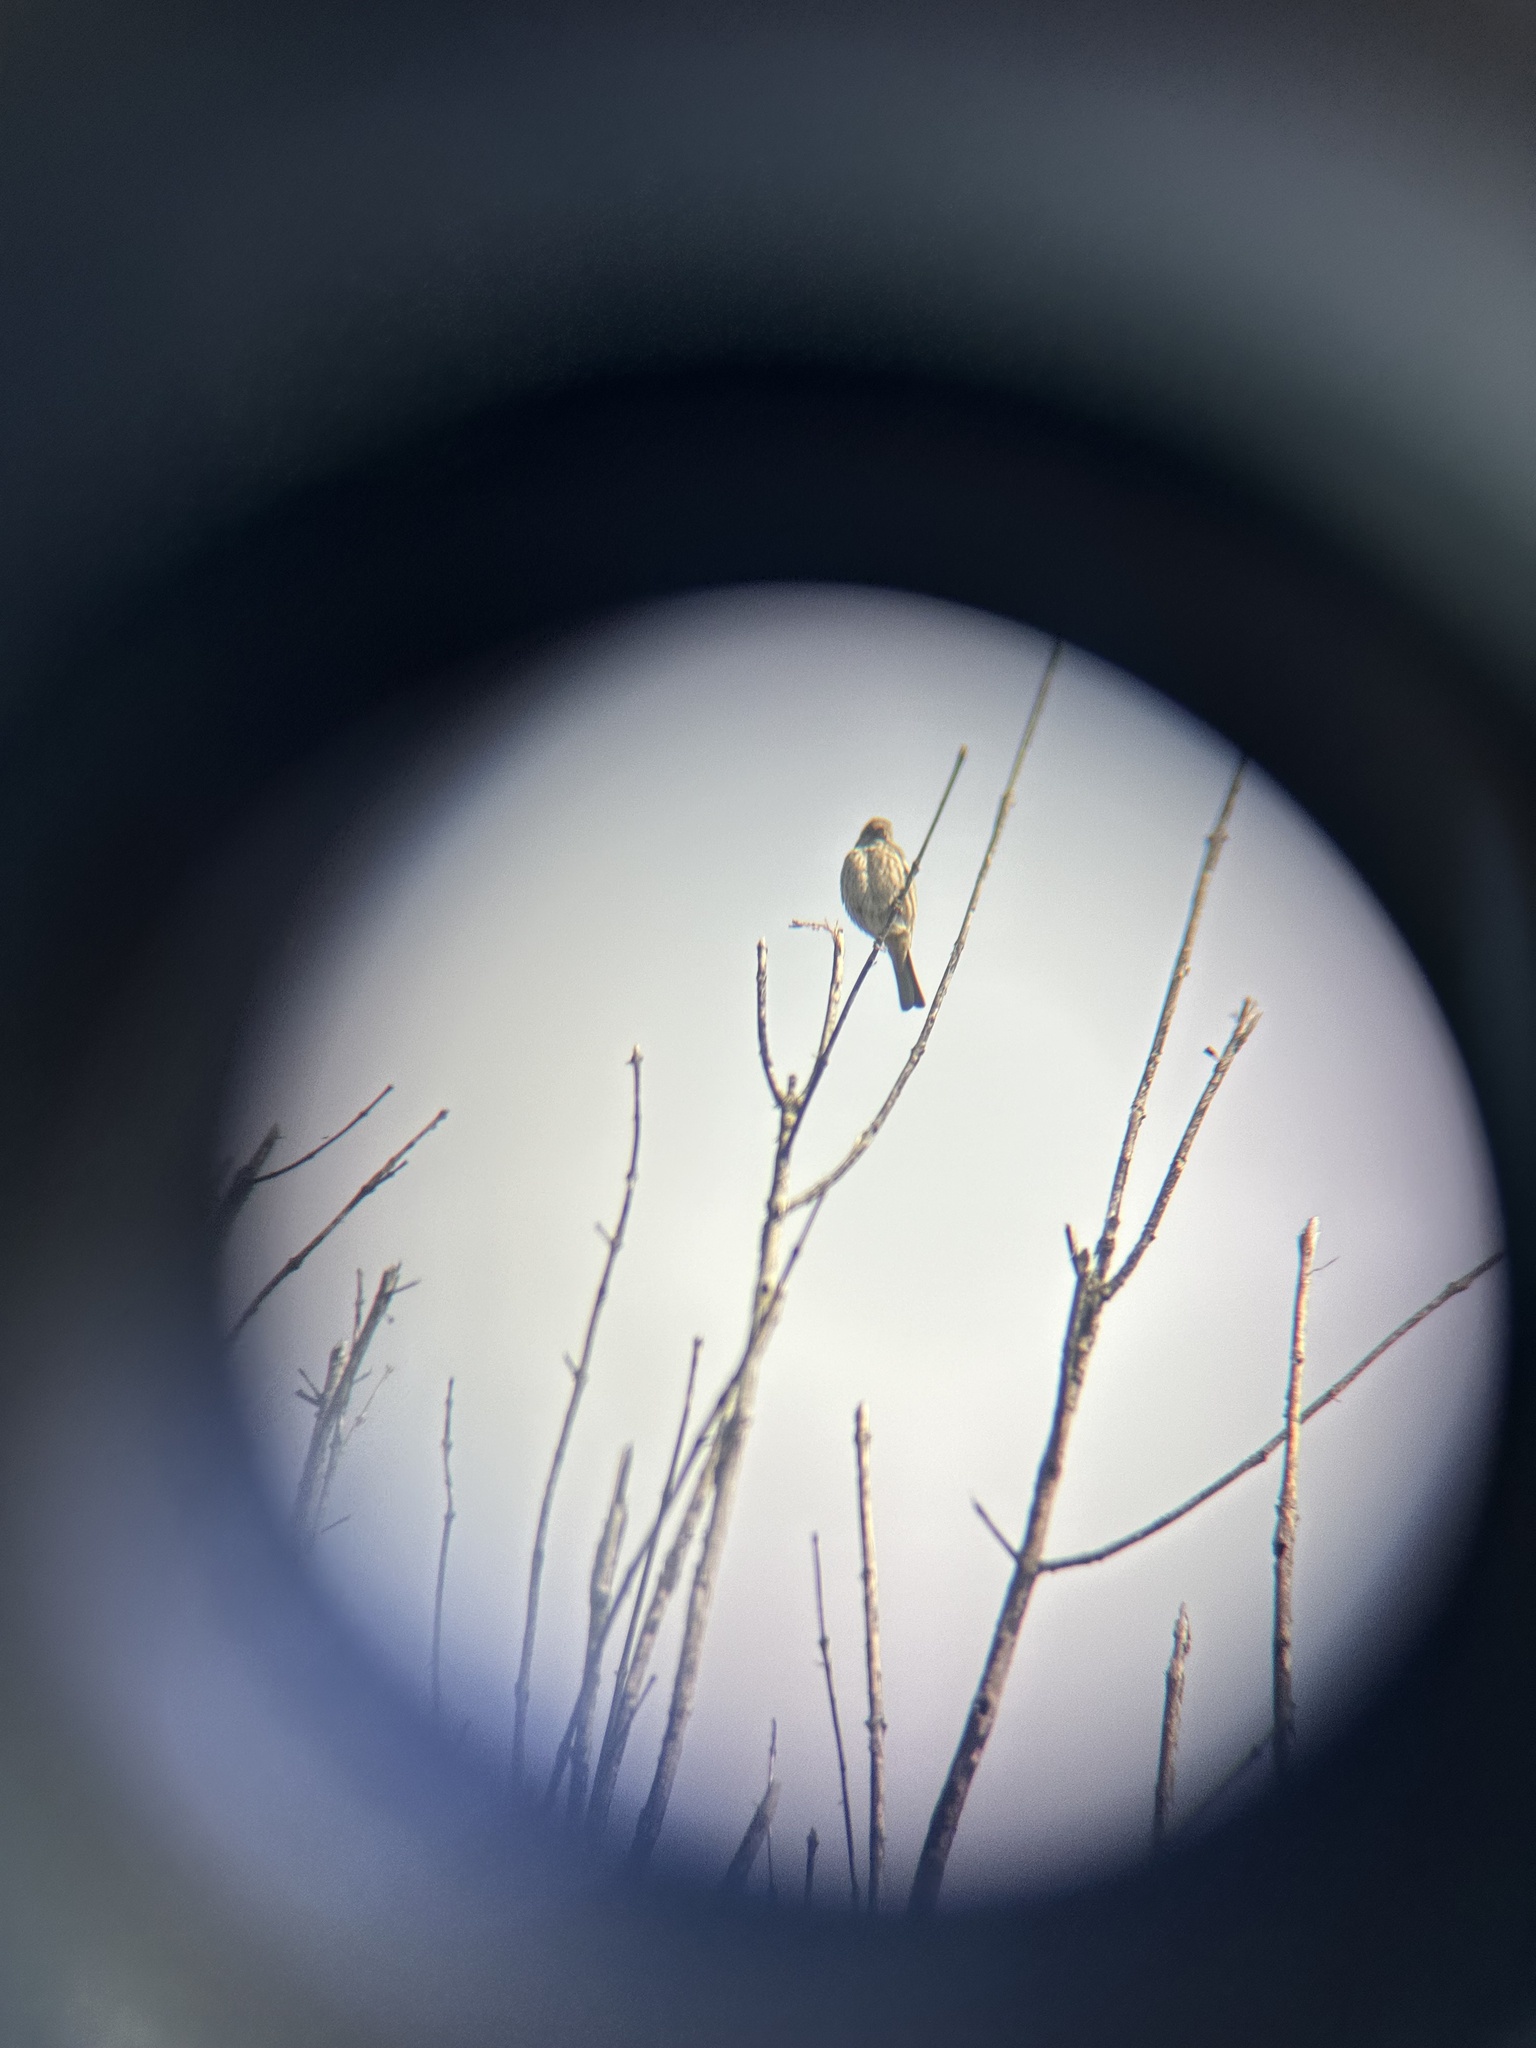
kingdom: Animalia
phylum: Chordata
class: Aves
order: Passeriformes
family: Fringillidae
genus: Haemorhous
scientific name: Haemorhous mexicanus
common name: House finch
